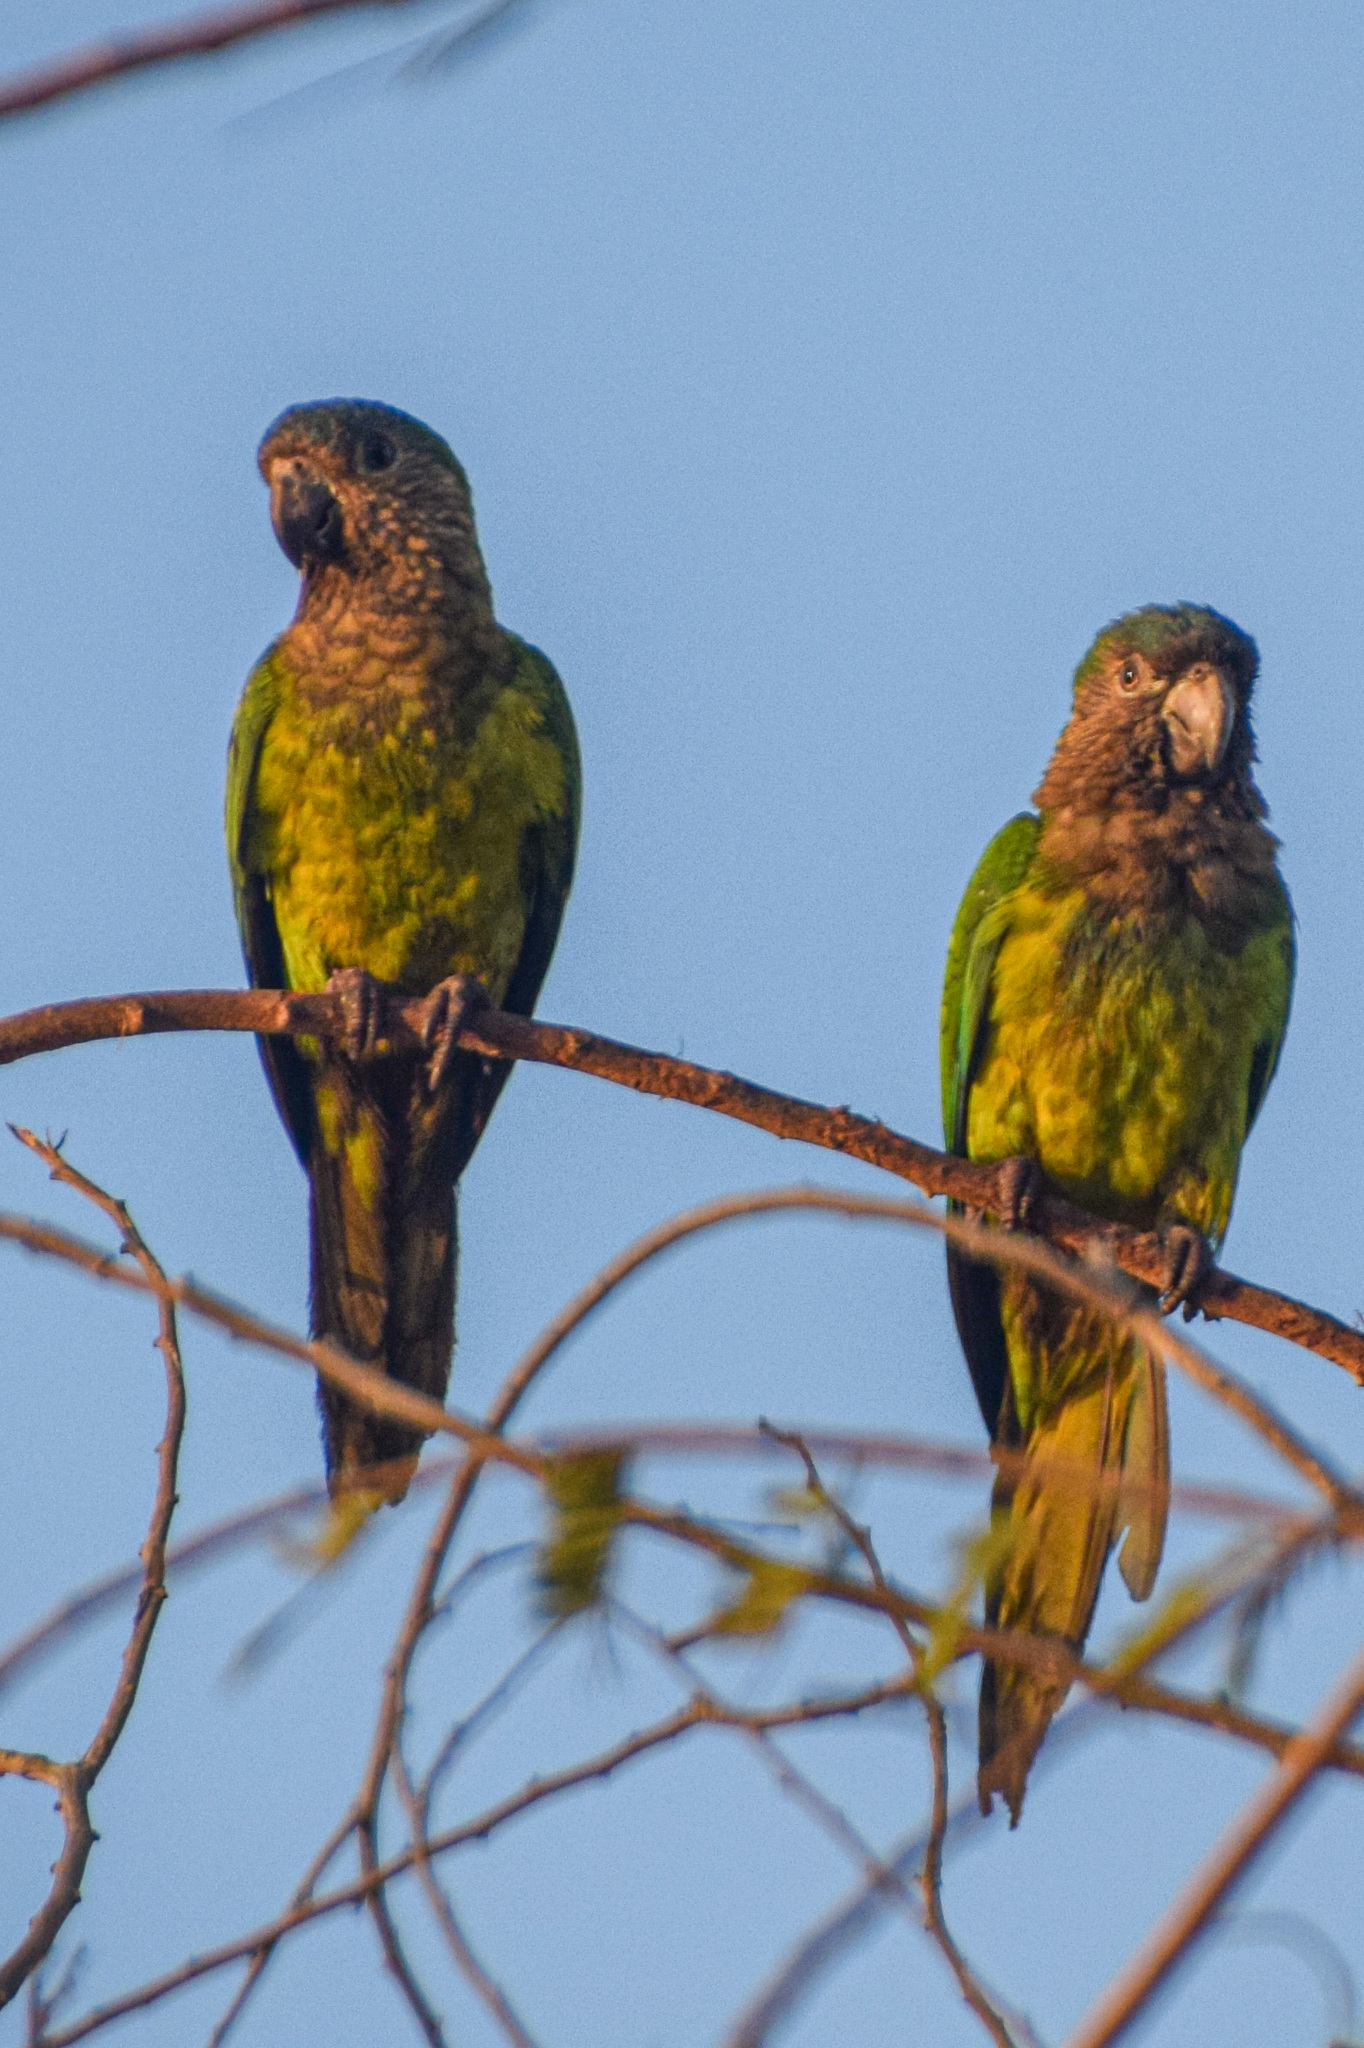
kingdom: Animalia
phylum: Chordata
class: Aves
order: Psittaciformes
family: Psittacidae
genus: Aratinga
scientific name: Aratinga pertinax
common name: Brown-throated parakeet
